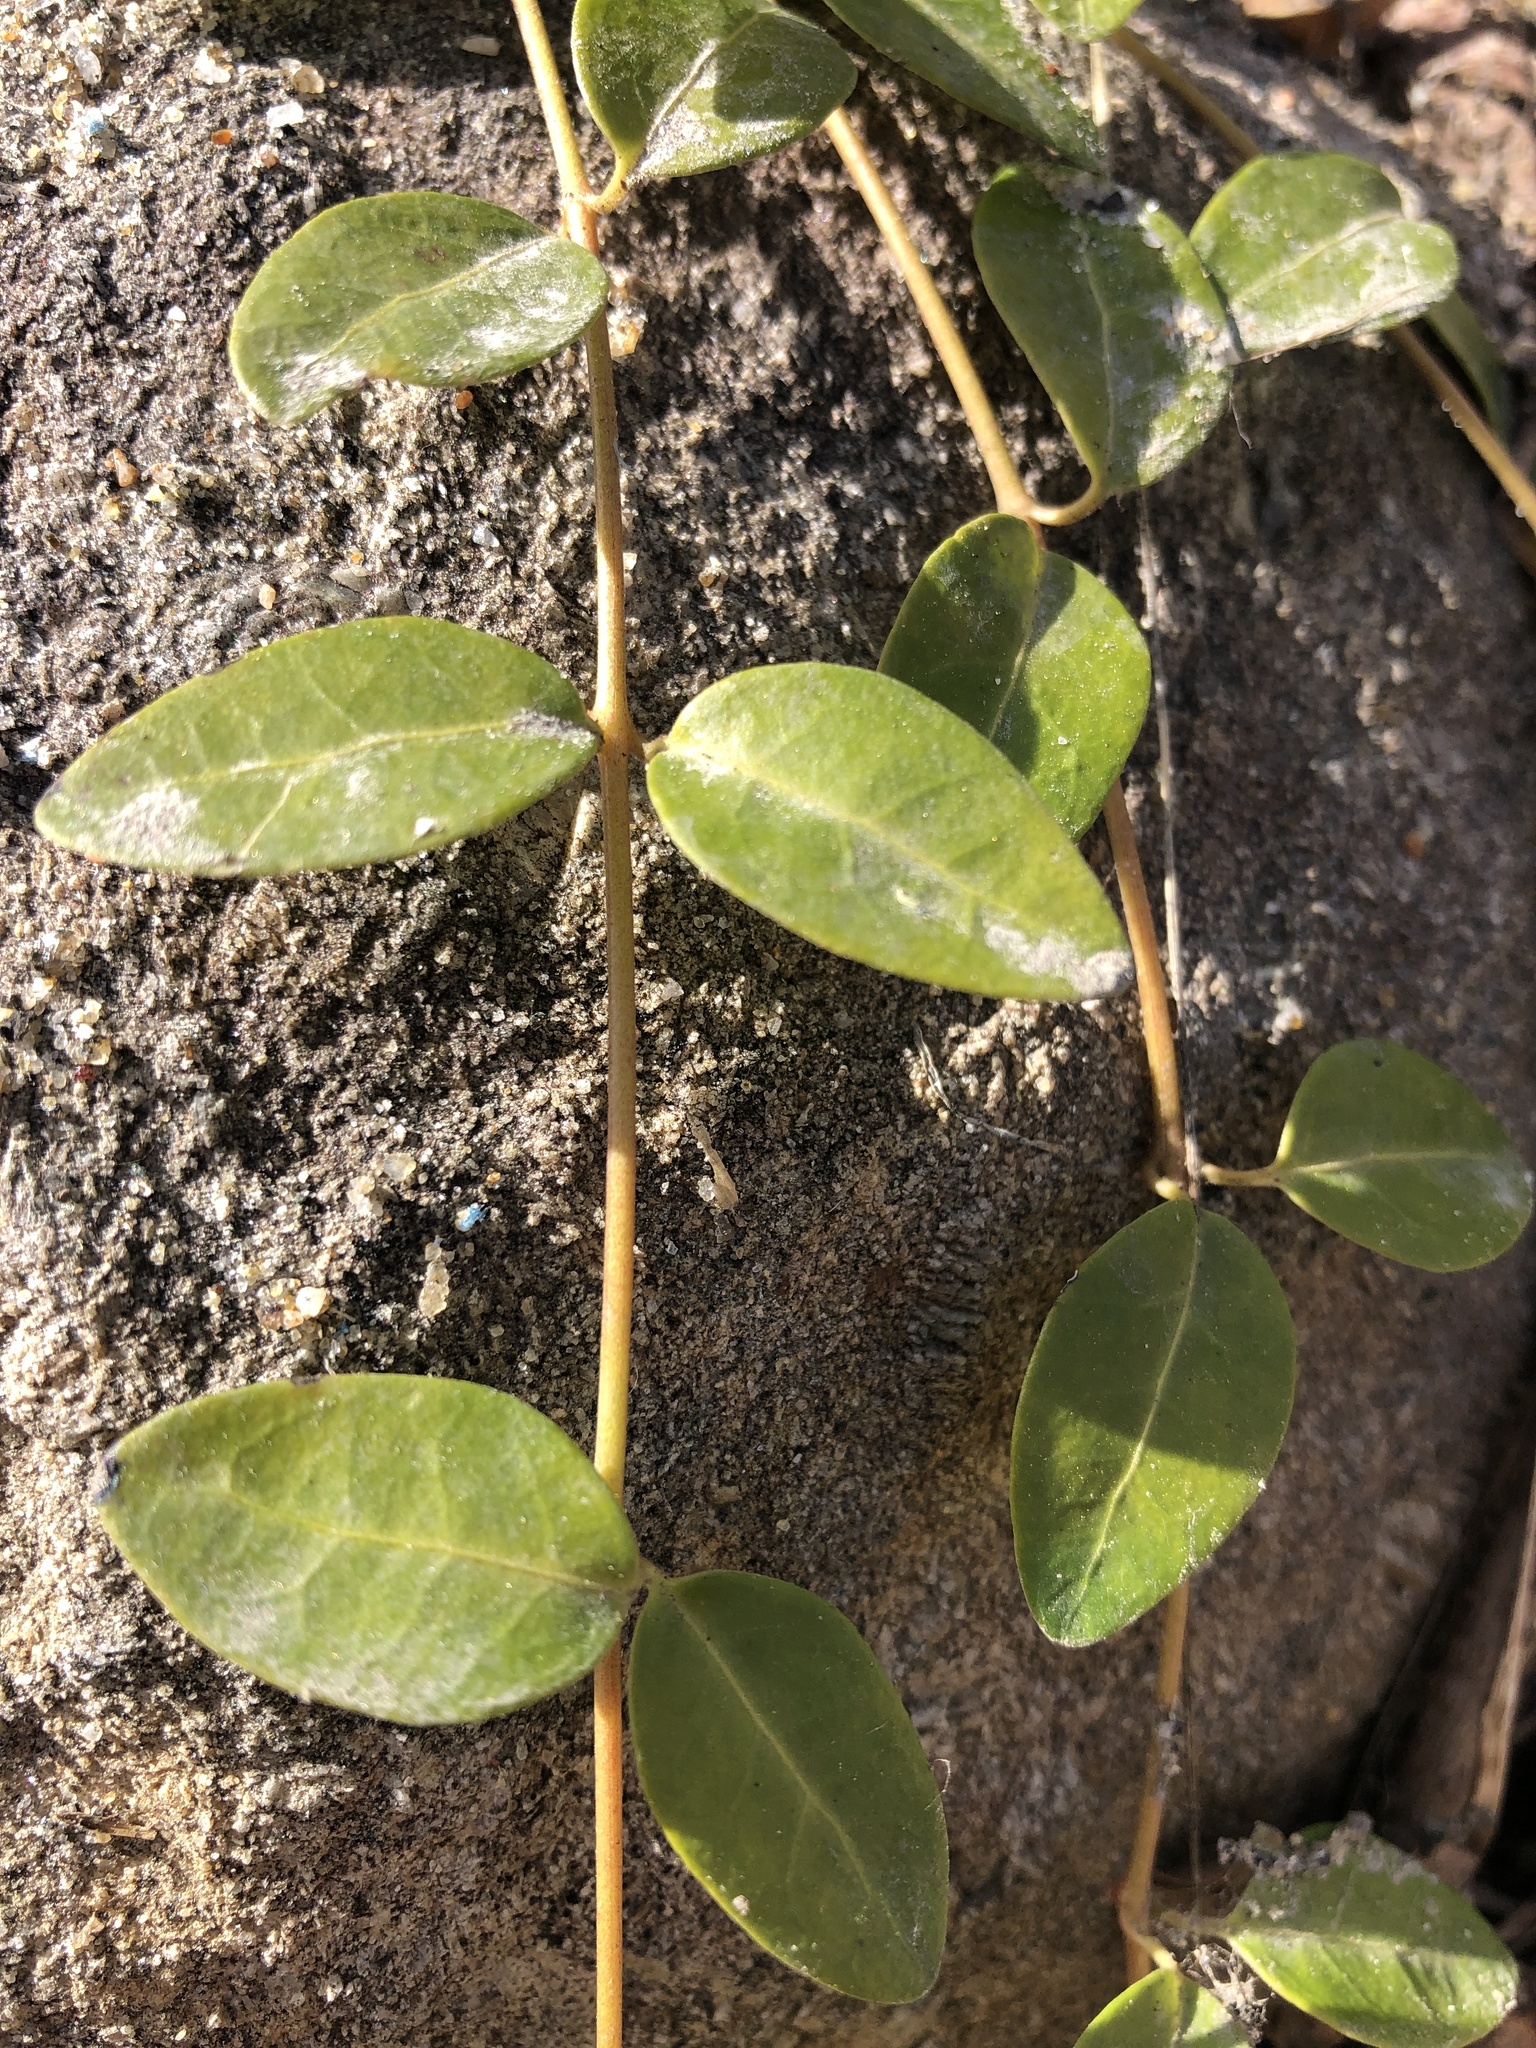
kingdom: Plantae
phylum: Tracheophyta
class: Magnoliopsida
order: Gentianales
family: Apocynaceae
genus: Vinca
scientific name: Vinca minor
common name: Lesser periwinkle
